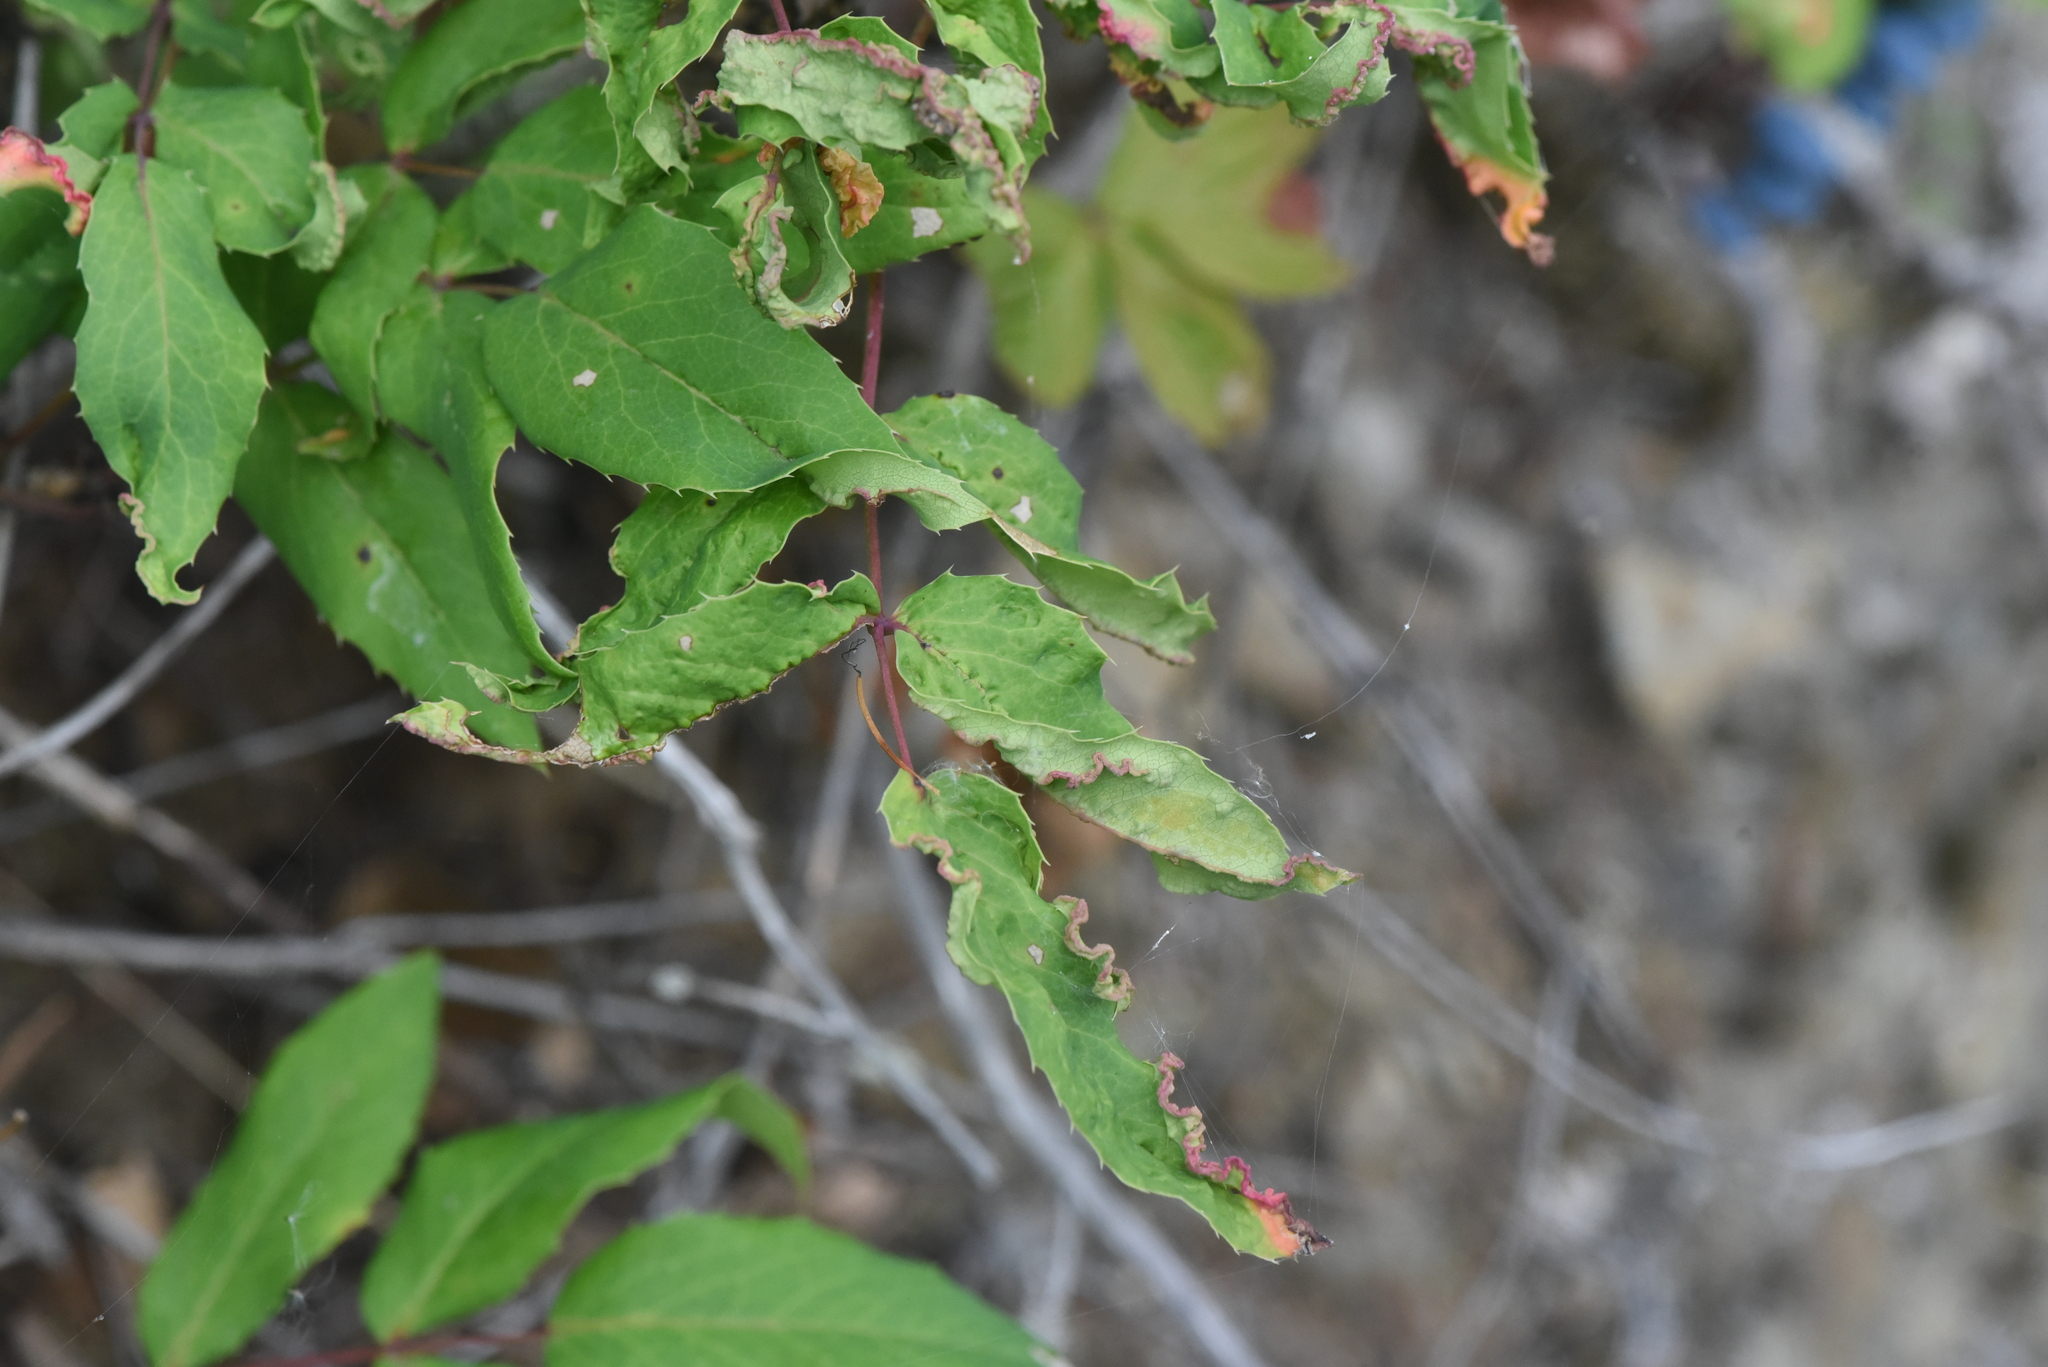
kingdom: Animalia
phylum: Arthropoda
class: Arachnida
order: Trombidiformes
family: Eriophyidae
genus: Aceria
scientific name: Aceria caliberberis
